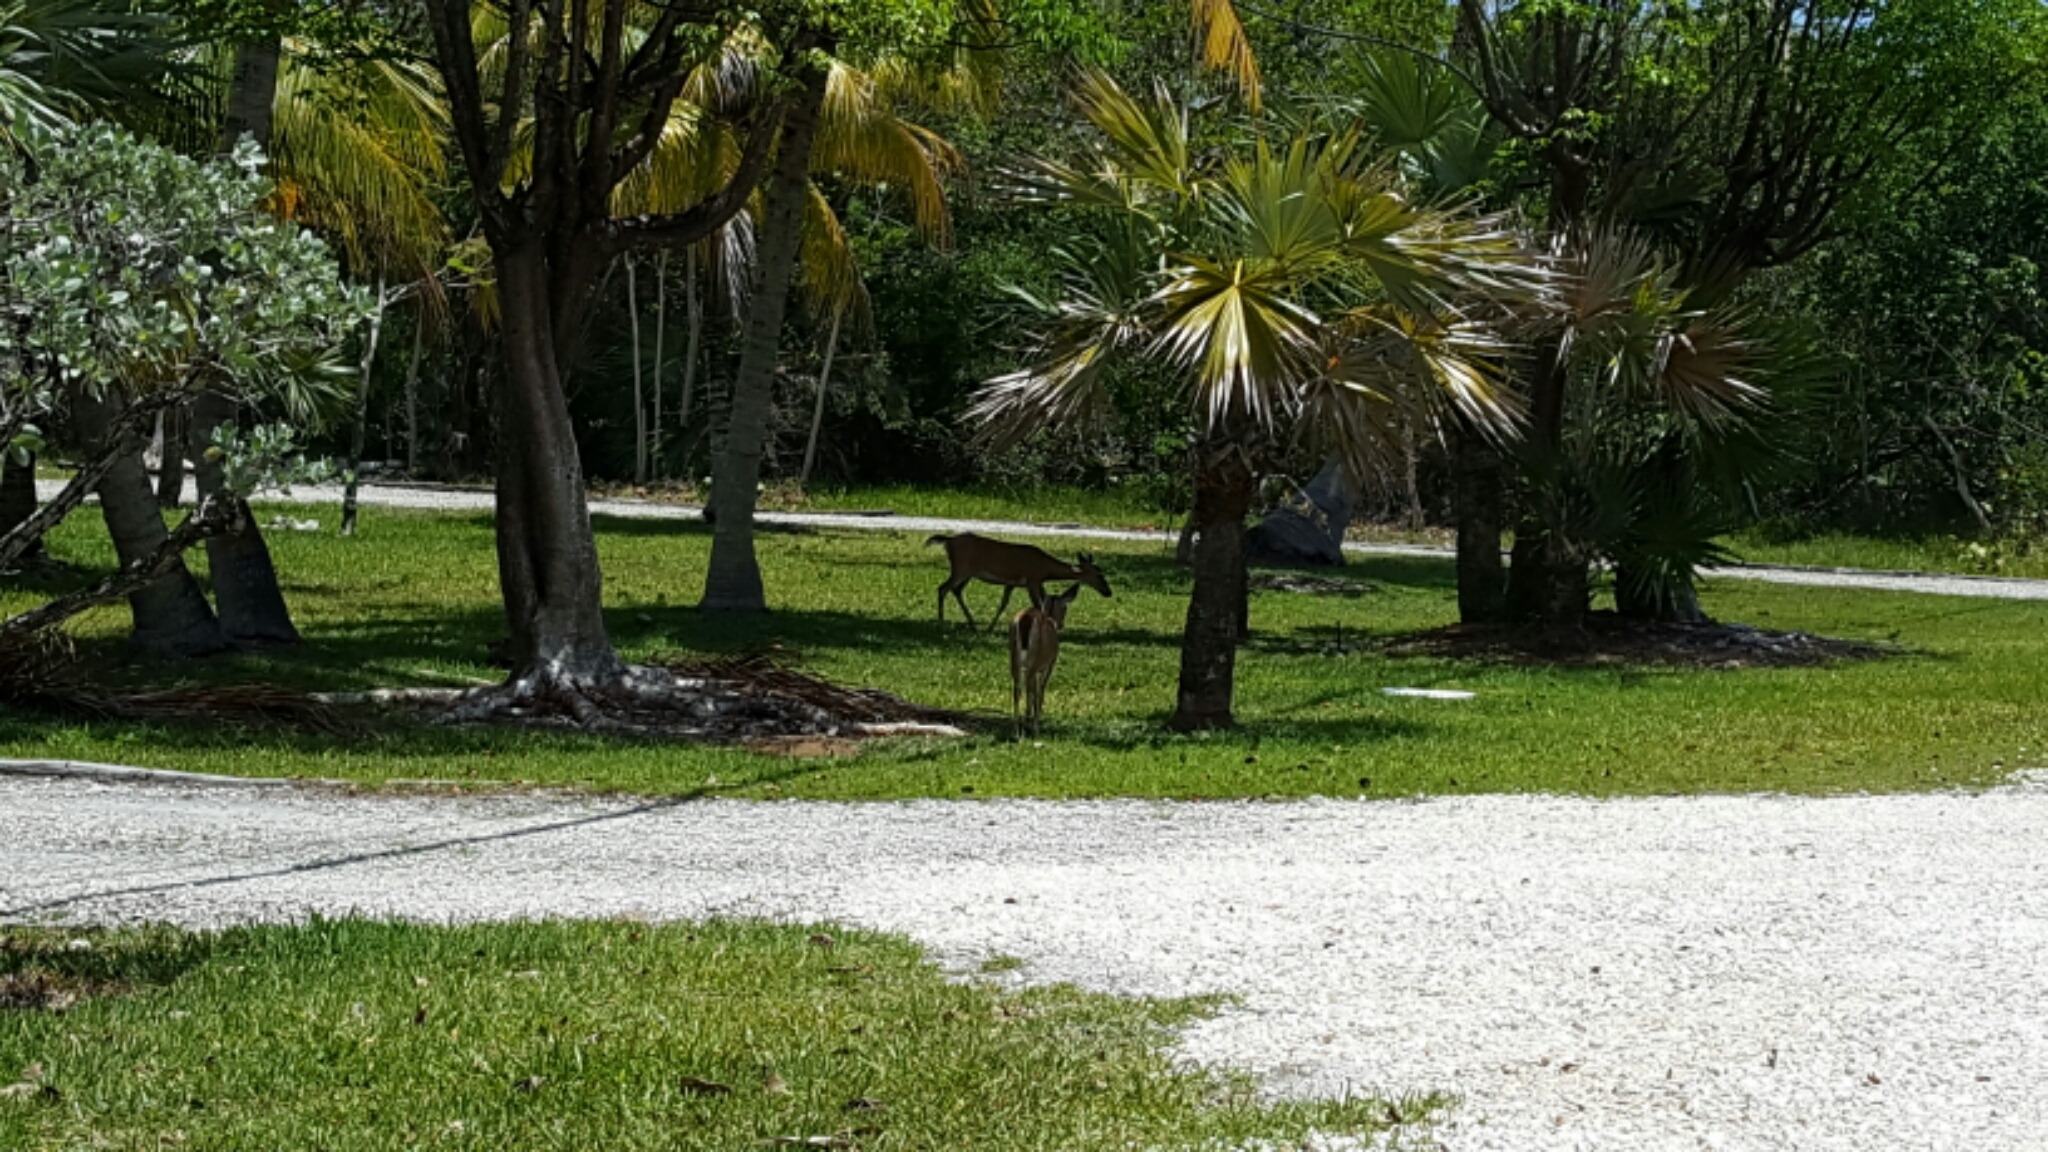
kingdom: Animalia
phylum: Chordata
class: Mammalia
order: Artiodactyla
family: Cervidae
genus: Odocoileus
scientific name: Odocoileus virginianus
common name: White-tailed deer
